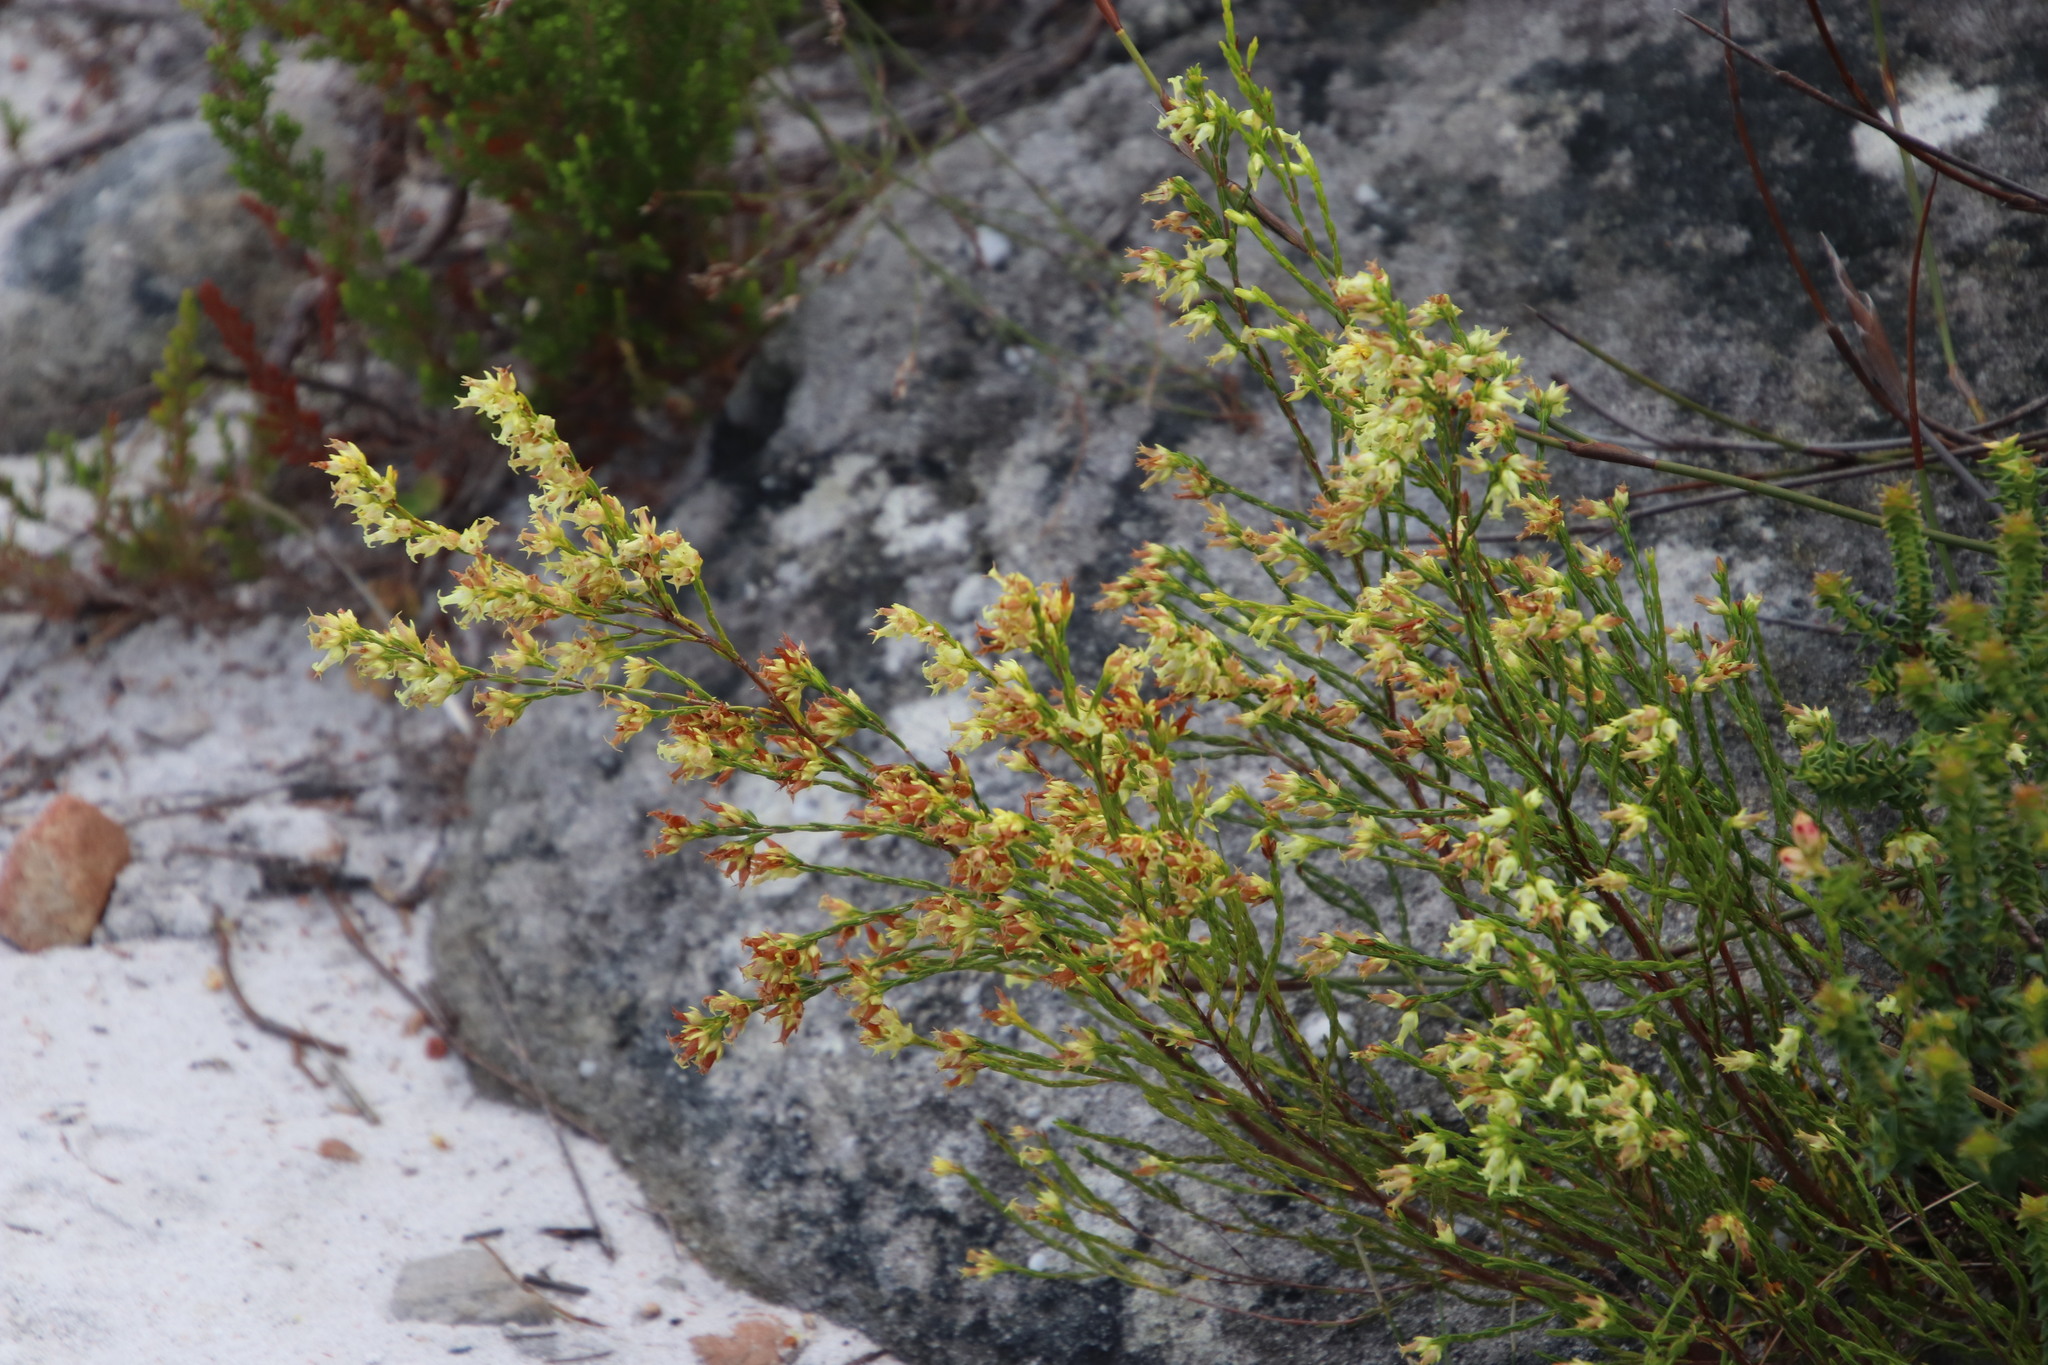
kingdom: Plantae
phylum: Tracheophyta
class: Magnoliopsida
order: Ericales
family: Ericaceae
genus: Erica
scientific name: Erica lutea
